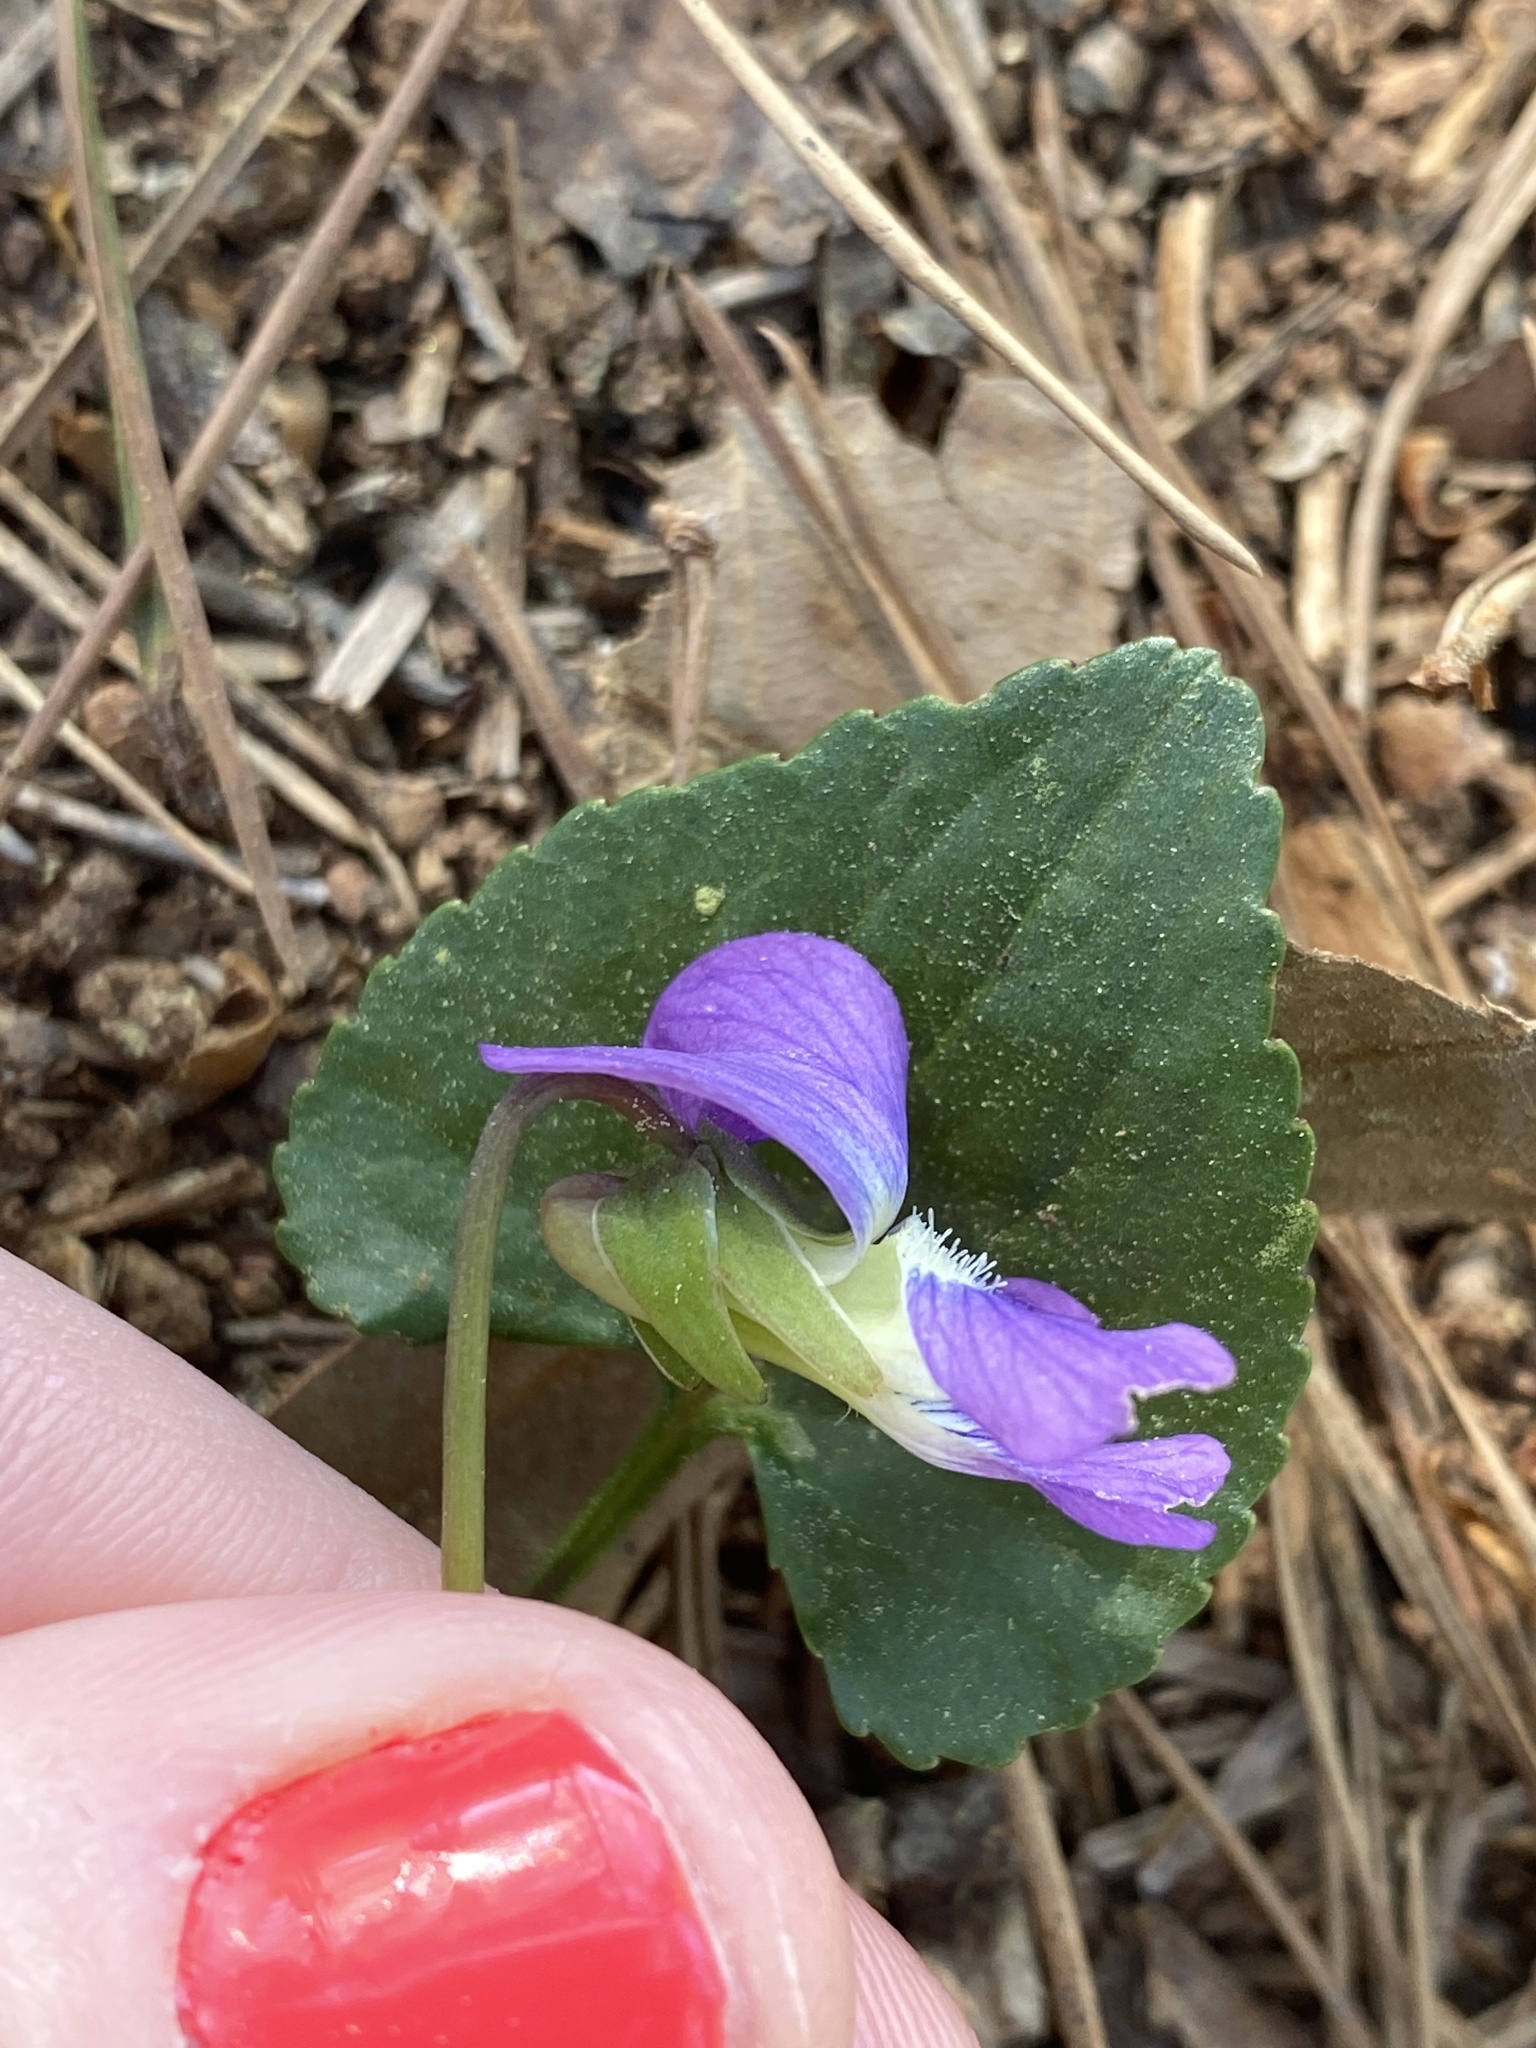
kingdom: Plantae
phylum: Tracheophyta
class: Magnoliopsida
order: Malpighiales
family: Violaceae
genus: Viola
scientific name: Viola sororia
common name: Dooryard violet
